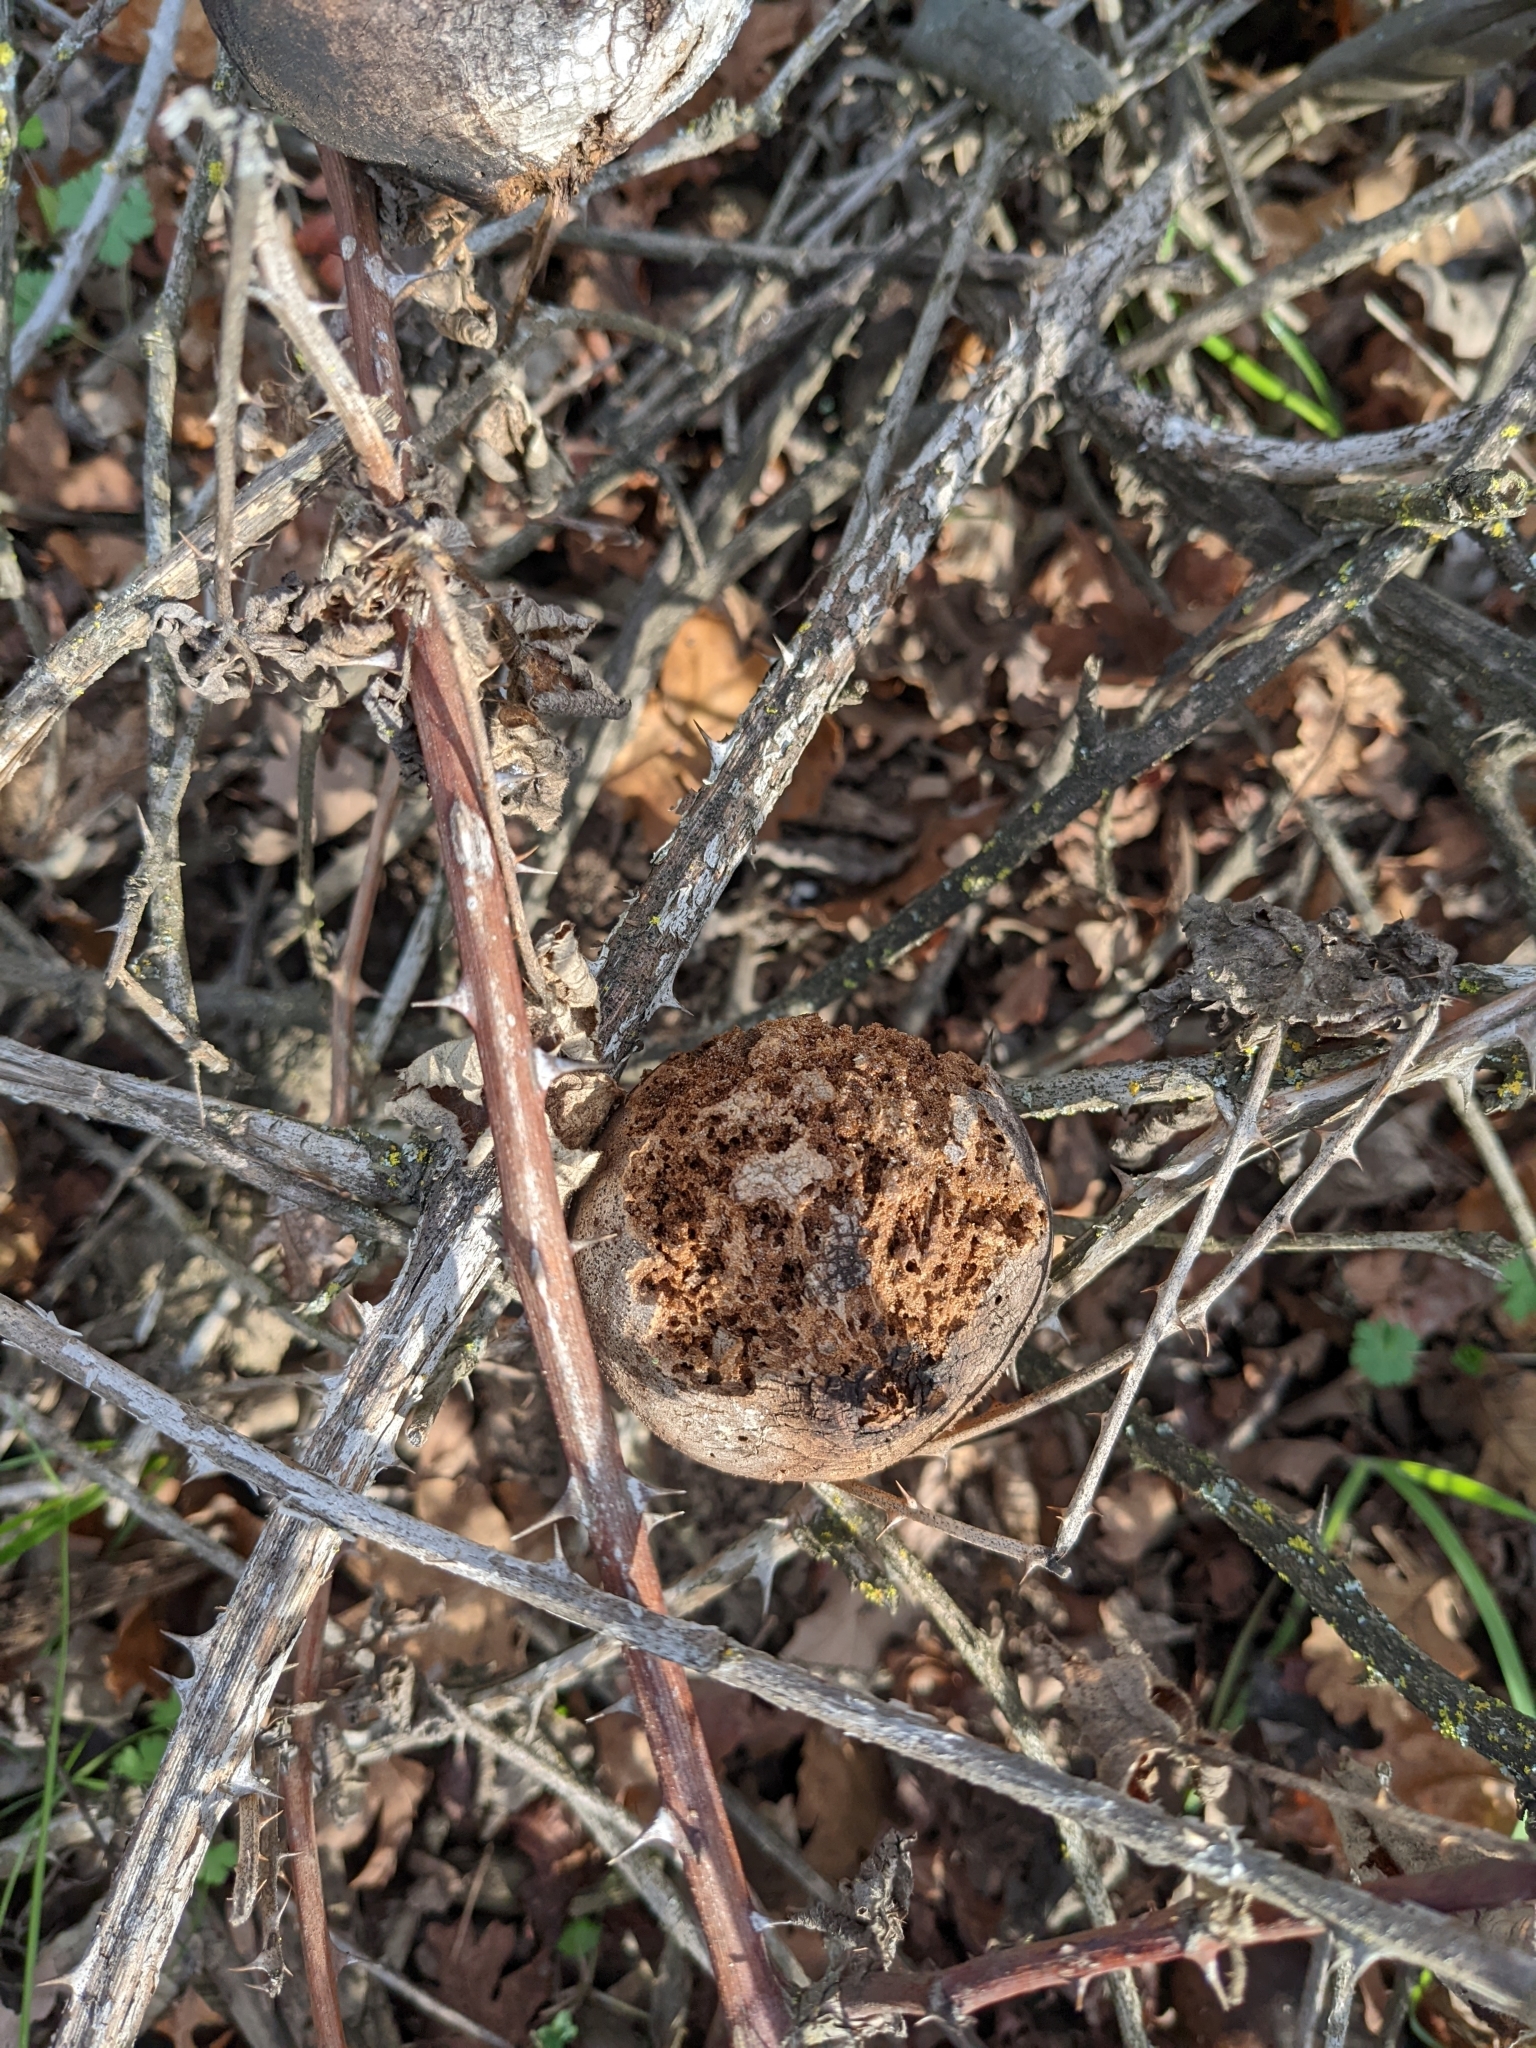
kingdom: Animalia
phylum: Arthropoda
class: Insecta
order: Hymenoptera
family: Cynipidae
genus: Andricus
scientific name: Andricus quercuscalifornicus
